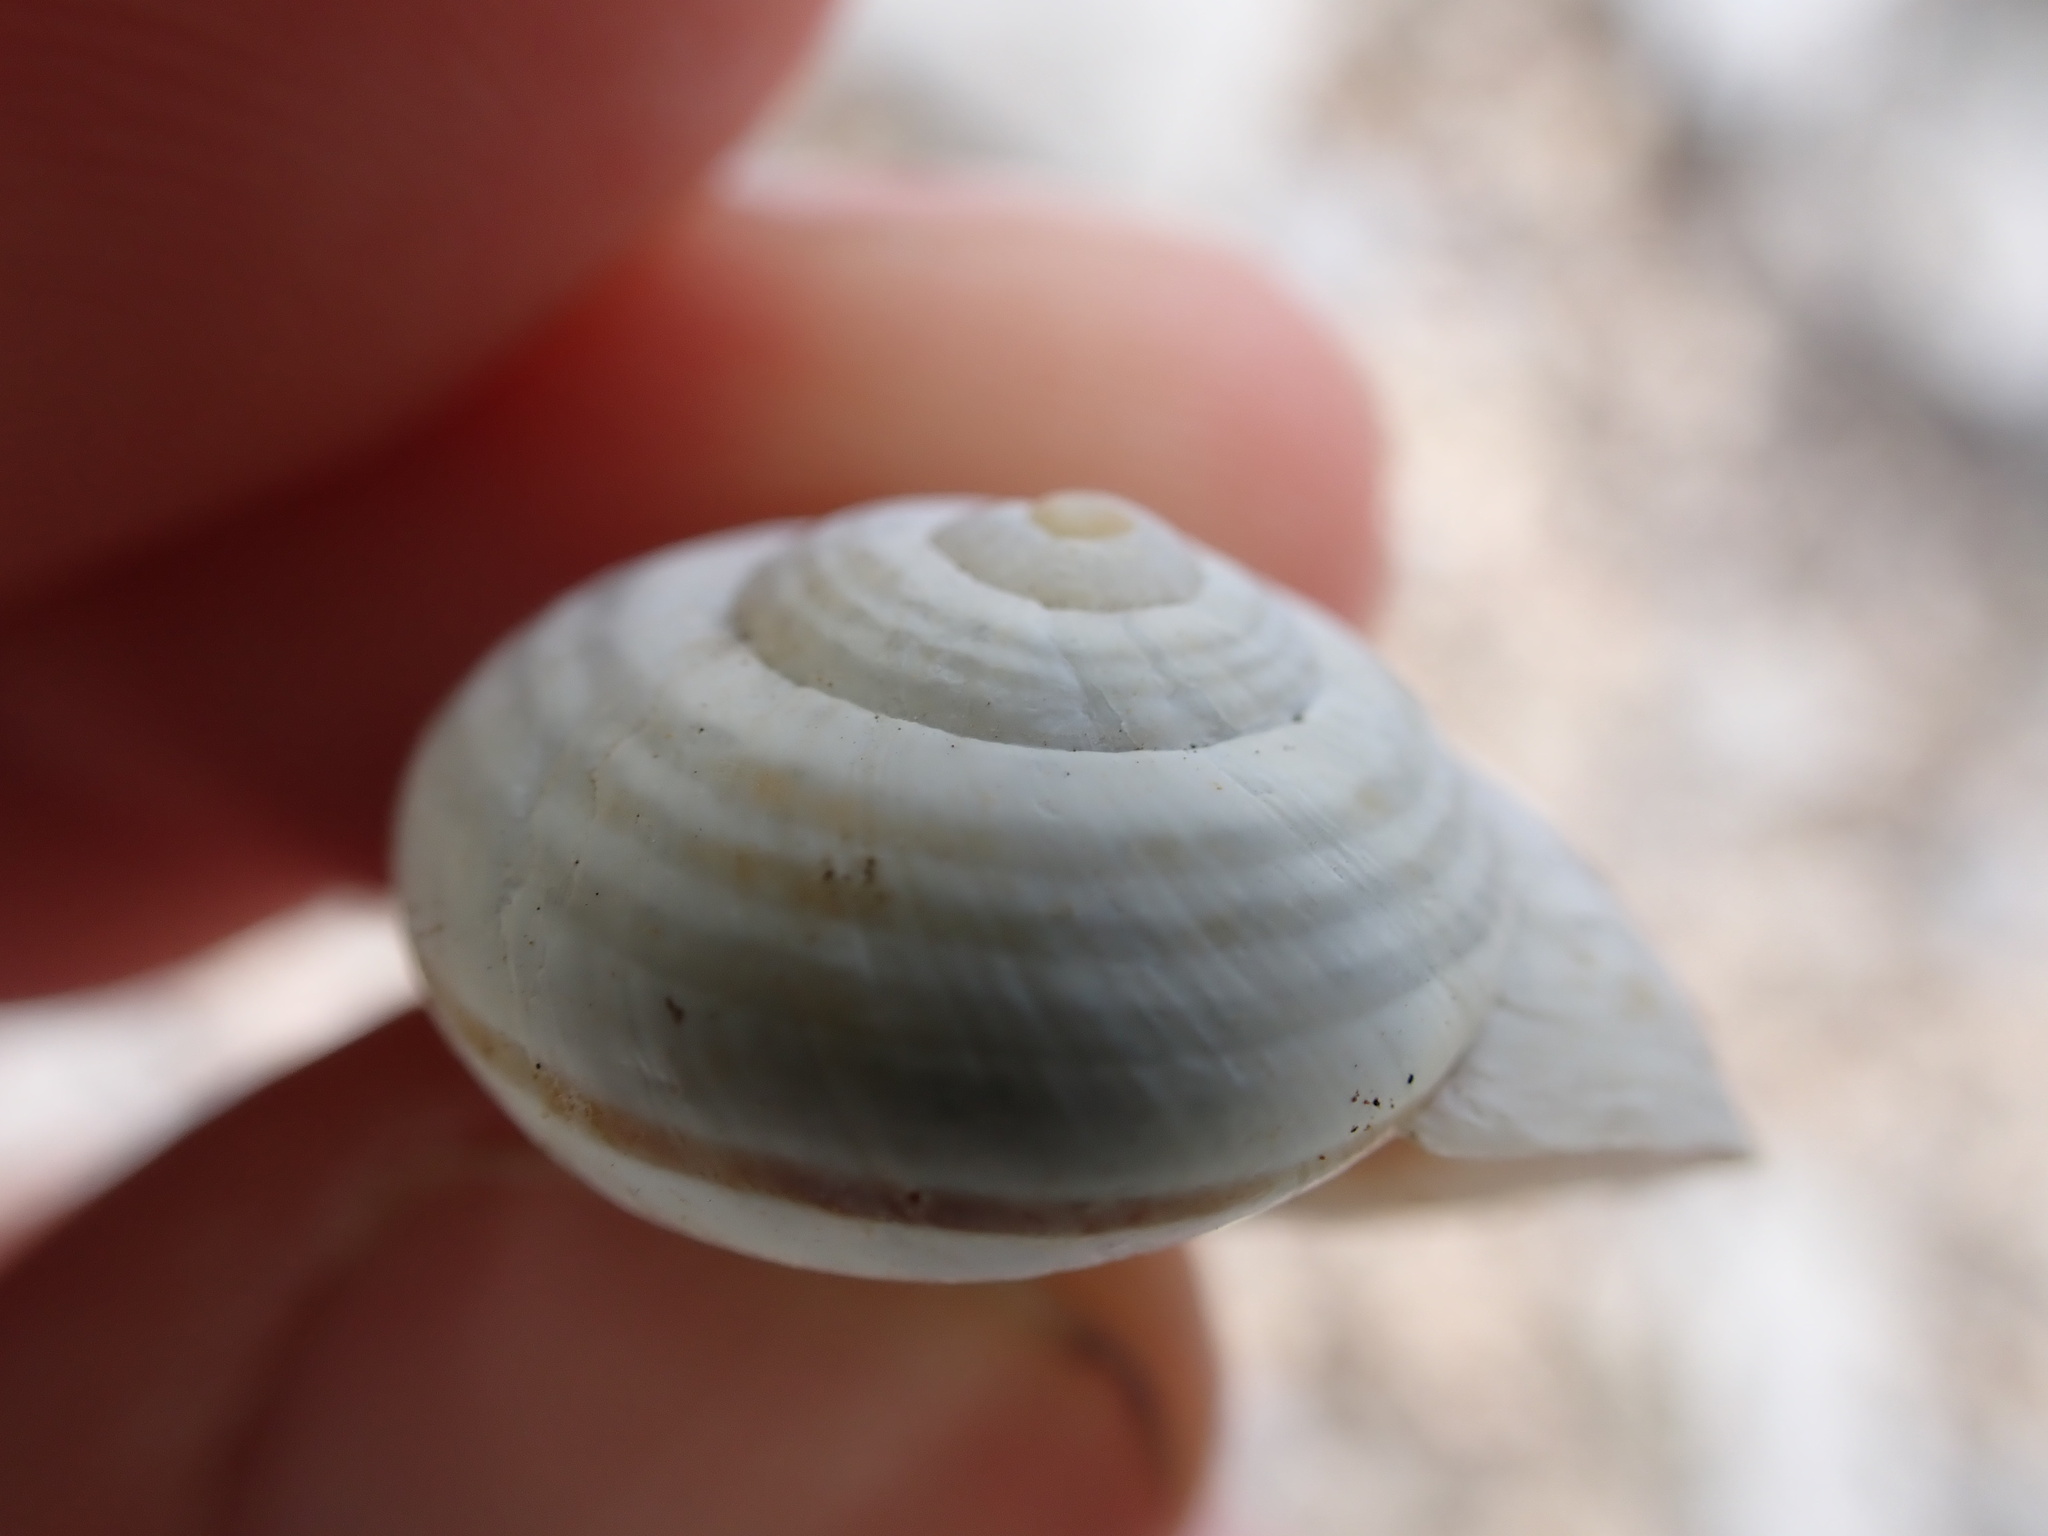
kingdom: Animalia
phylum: Mollusca
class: Gastropoda
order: Stylommatophora
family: Helicidae
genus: Pseudotachea
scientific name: Pseudotachea splendida
